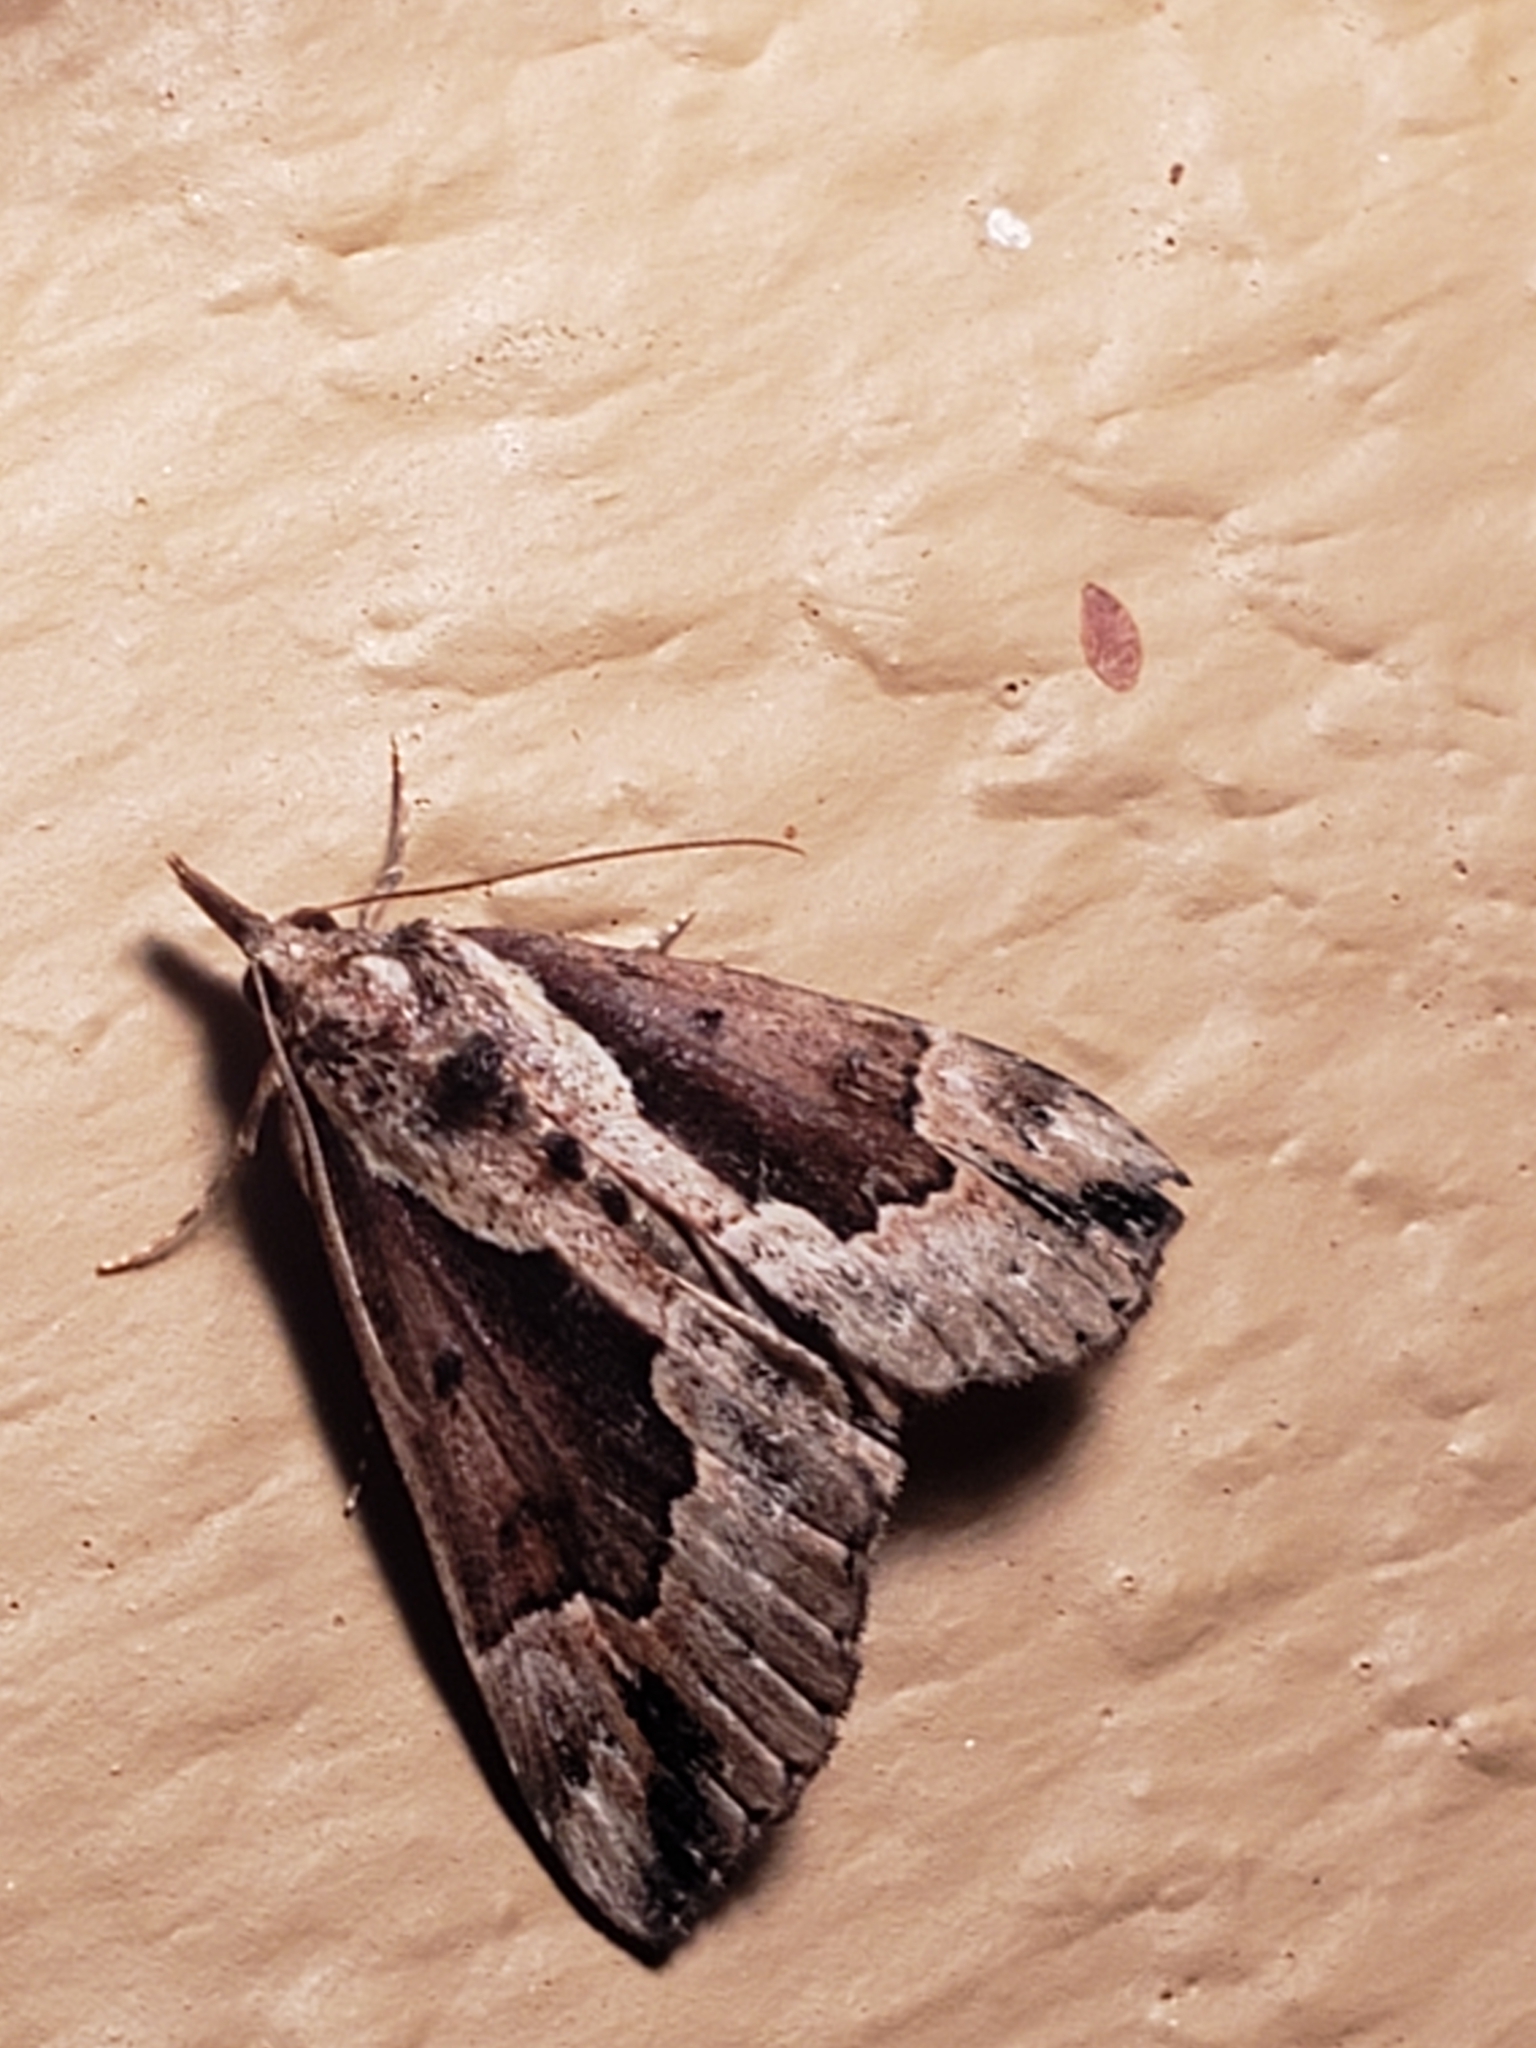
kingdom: Animalia
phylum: Arthropoda
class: Insecta
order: Lepidoptera
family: Erebidae
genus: Hypena
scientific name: Hypena baltimoralis
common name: Baltimore snout
